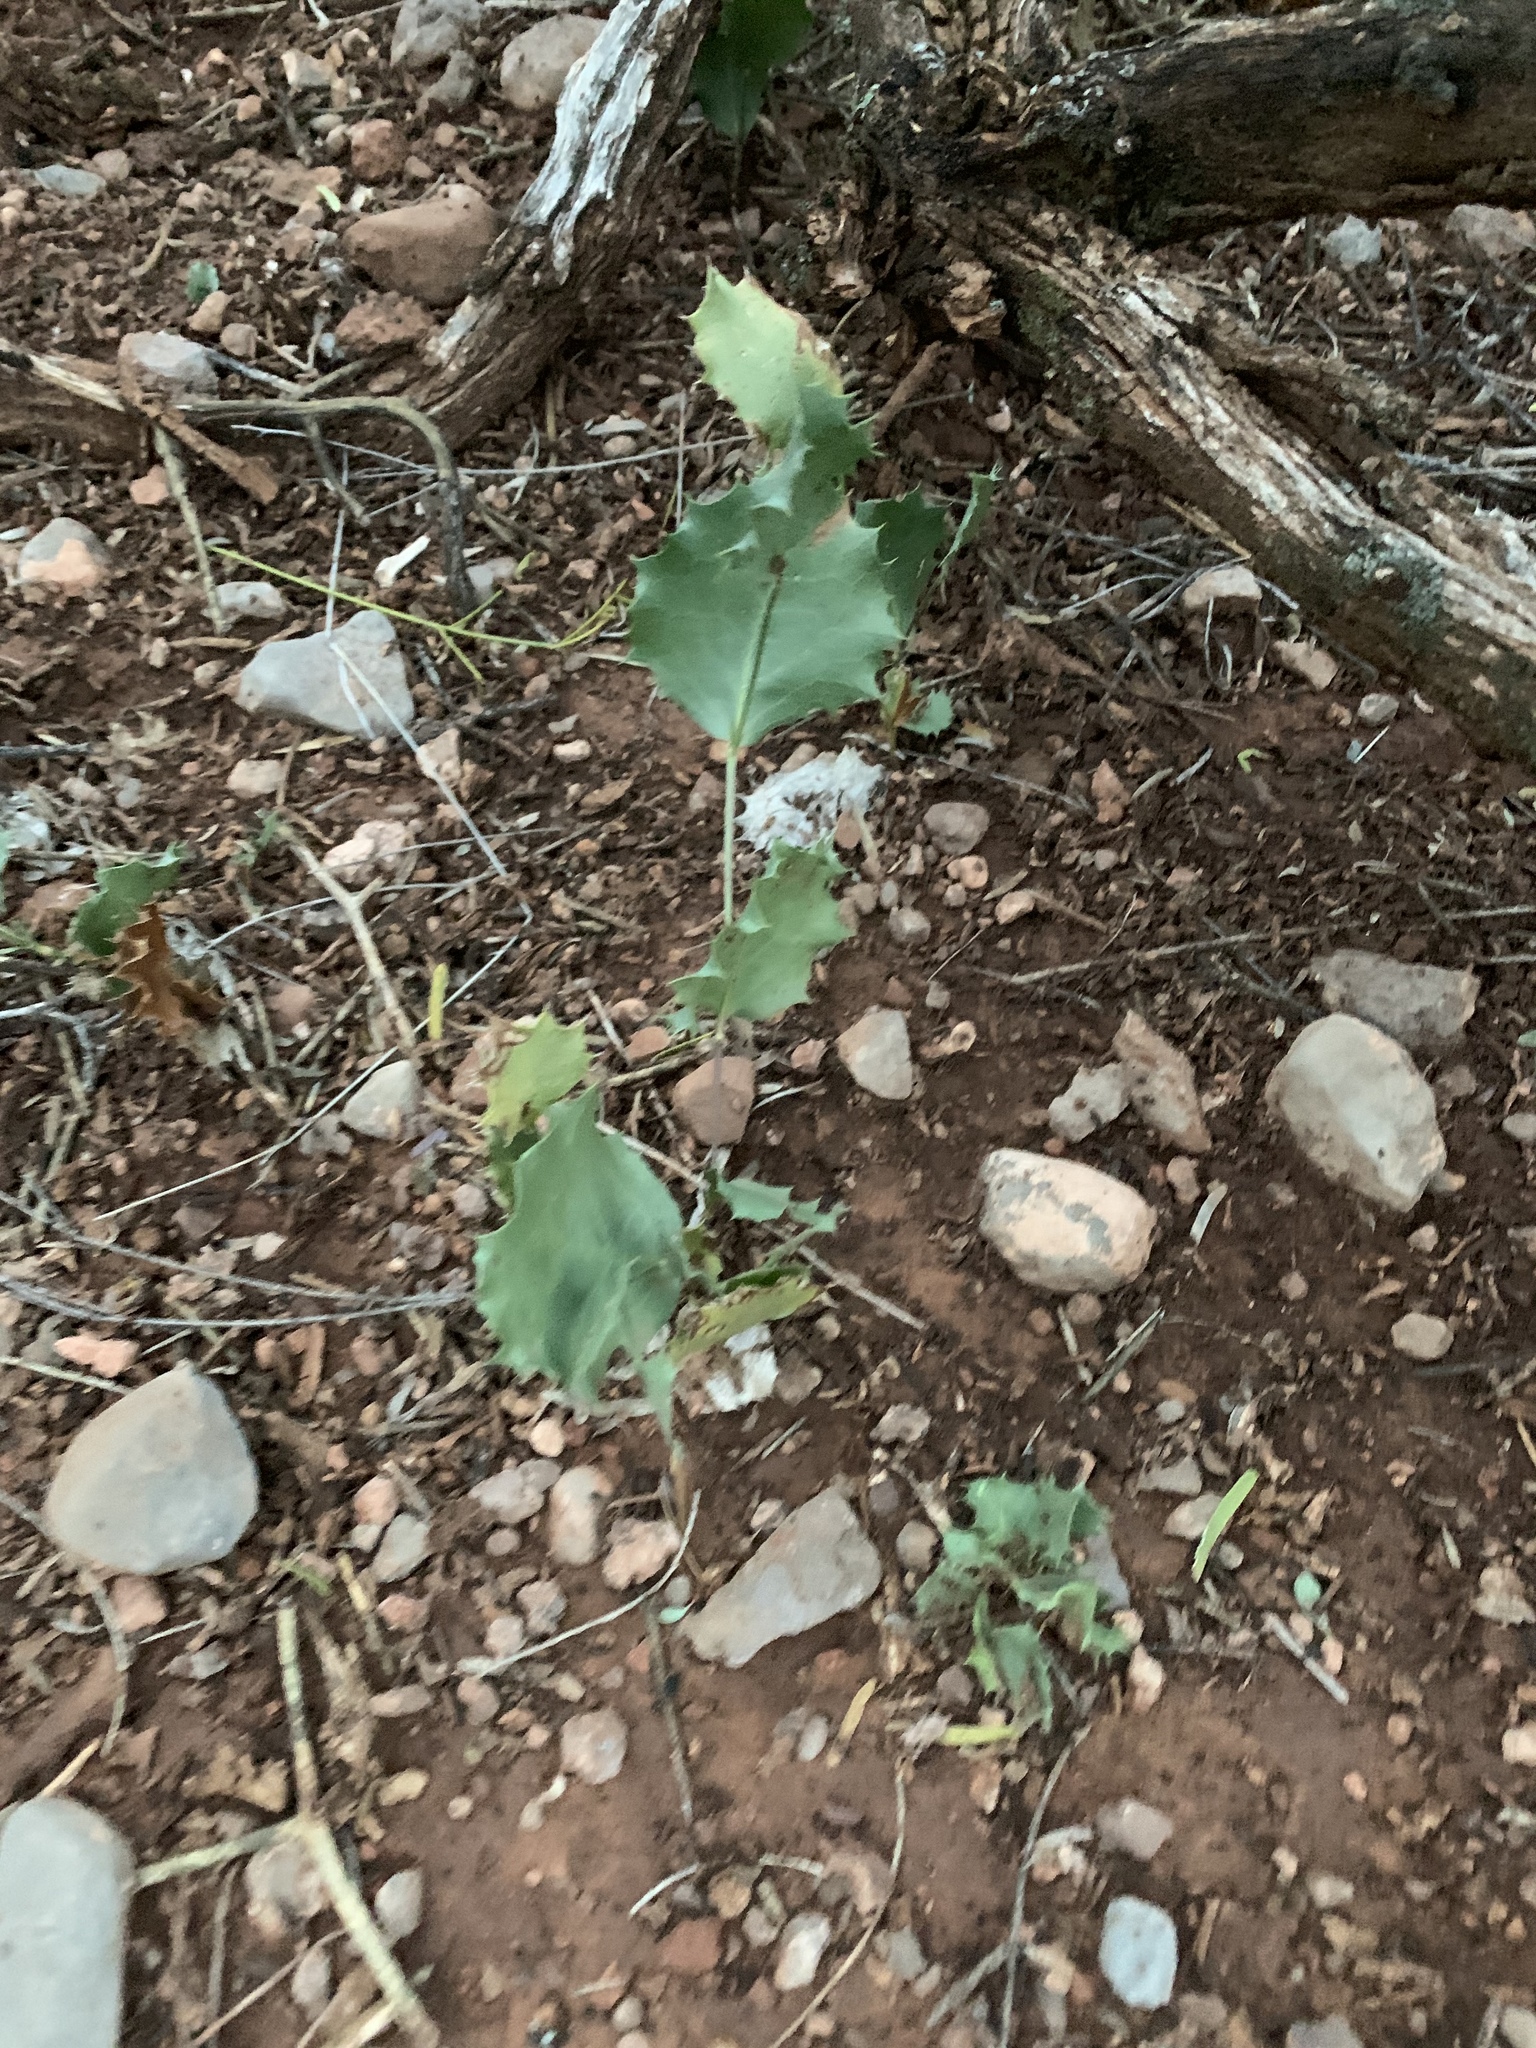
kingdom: Plantae
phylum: Tracheophyta
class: Magnoliopsida
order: Asterales
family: Asteraceae
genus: Acourtia
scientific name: Acourtia nana
